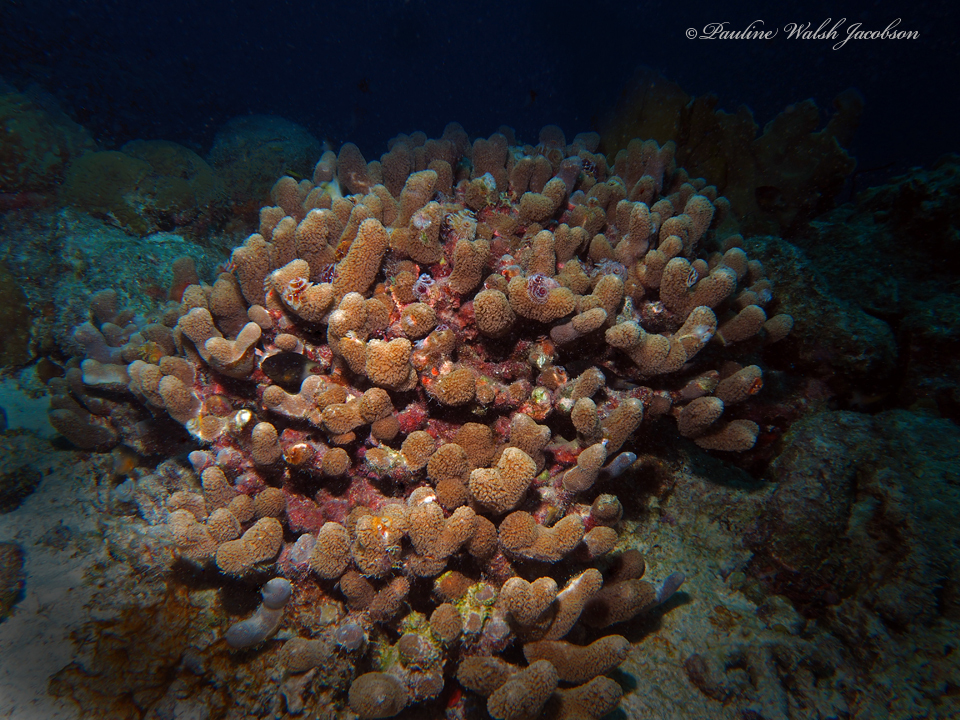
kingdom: Animalia
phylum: Cnidaria
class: Anthozoa
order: Scleractinia
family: Poritidae
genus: Porites
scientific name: Porites porites
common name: Finger coral
